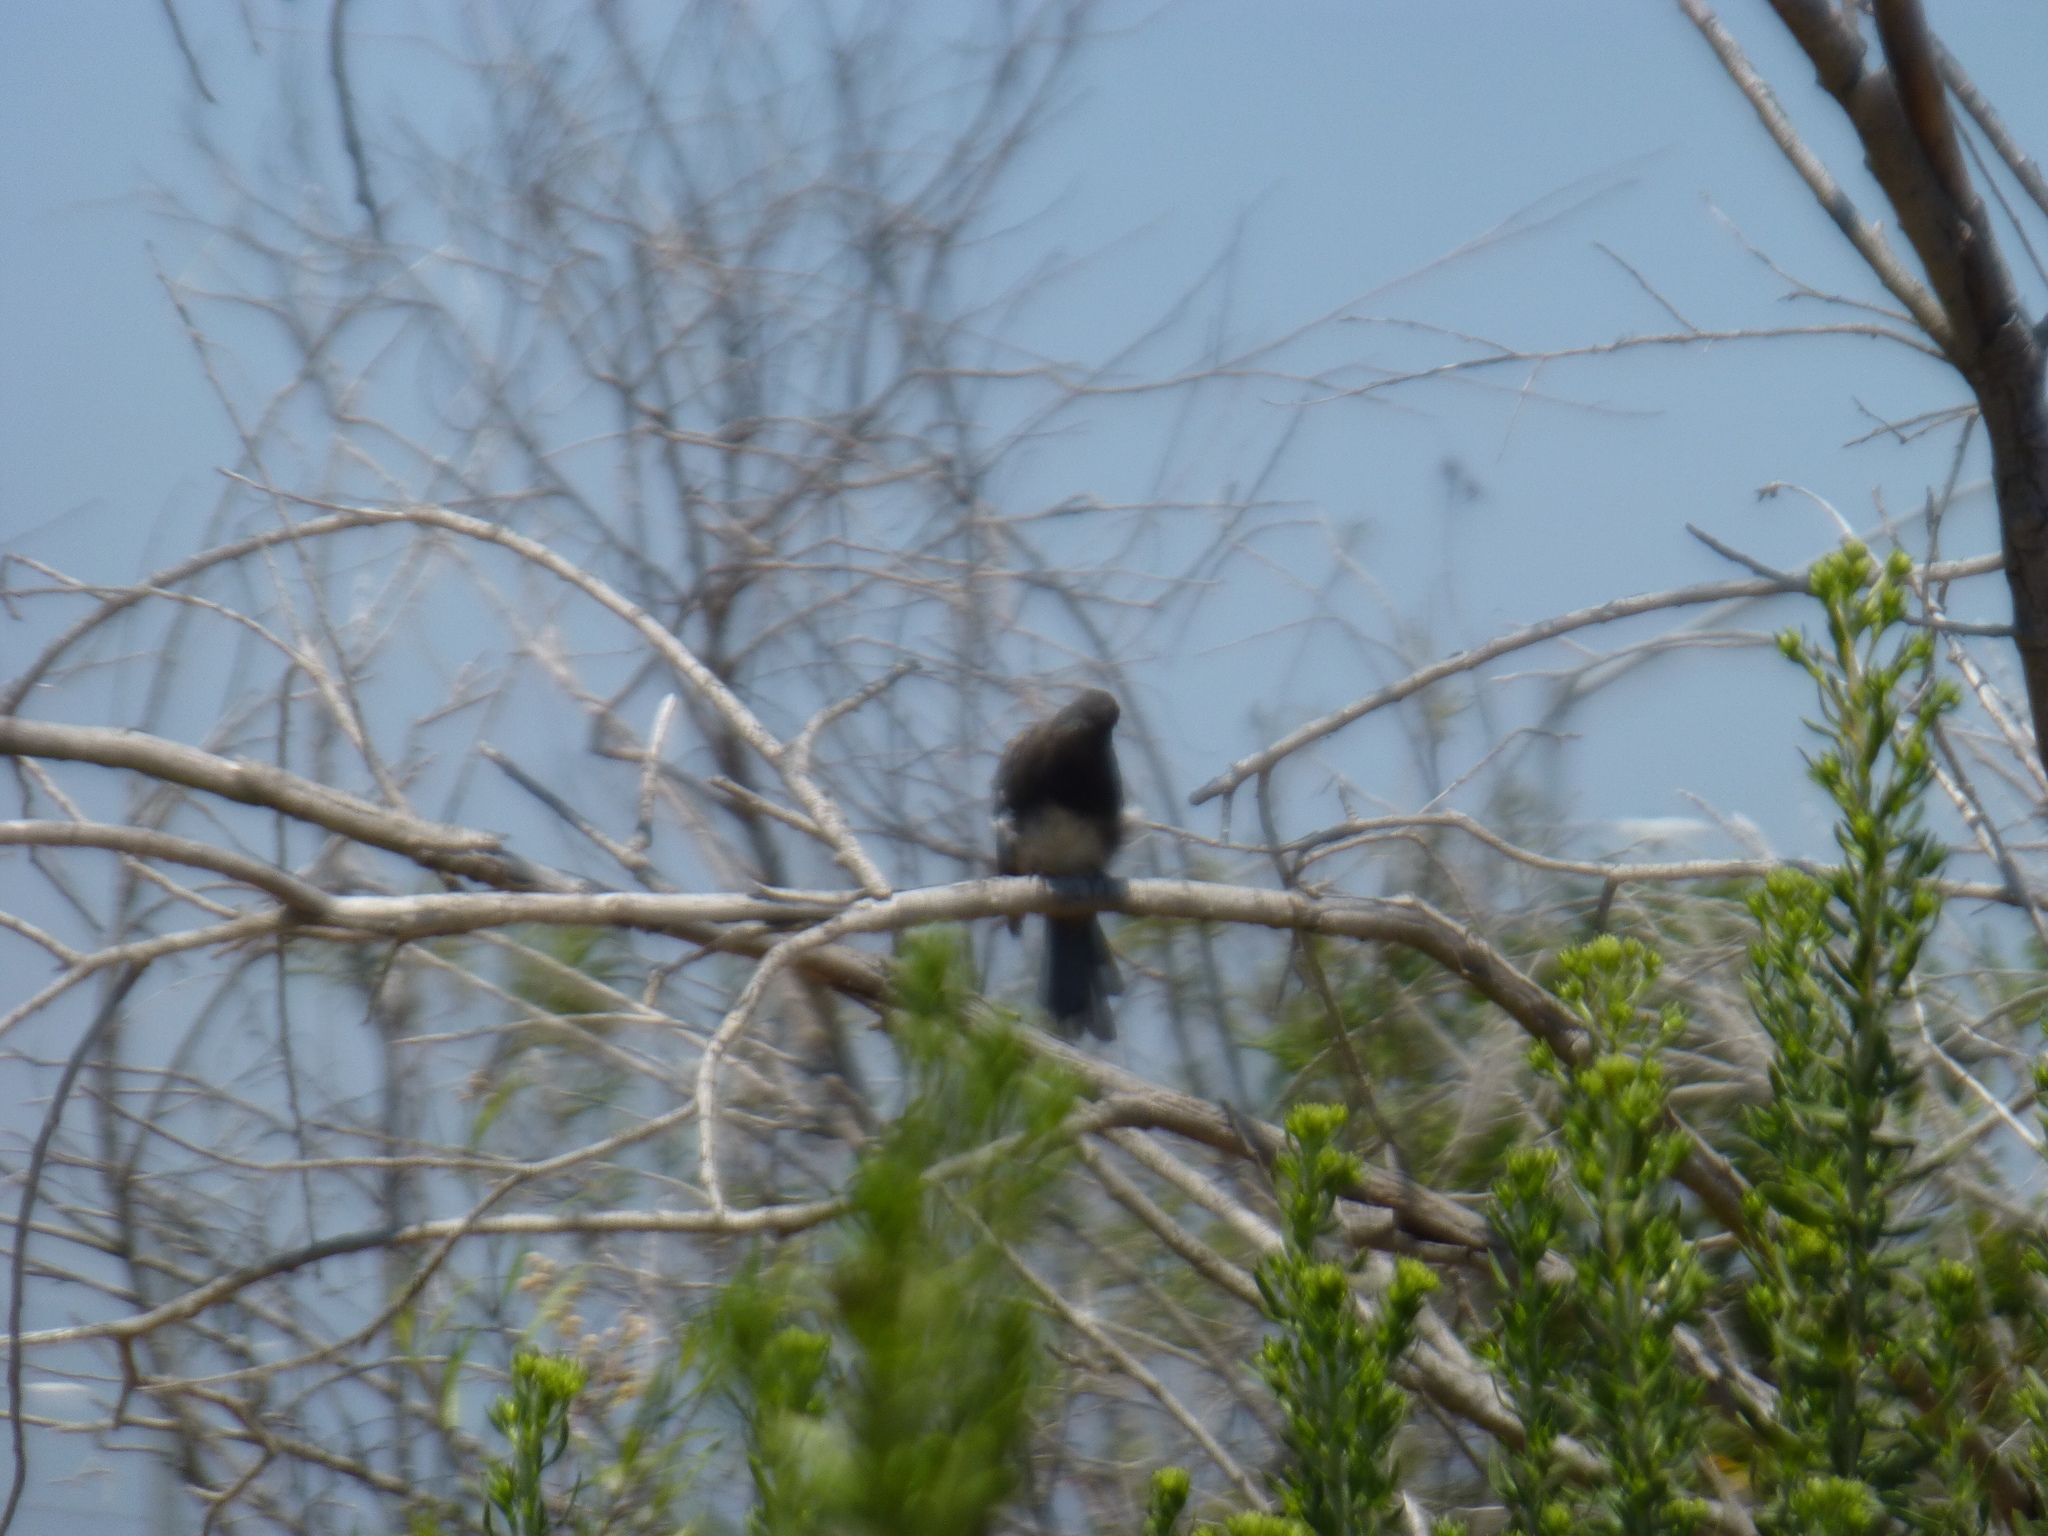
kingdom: Animalia
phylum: Chordata
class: Aves
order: Passeriformes
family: Tyrannidae
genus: Sayornis
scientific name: Sayornis nigricans
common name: Black phoebe
